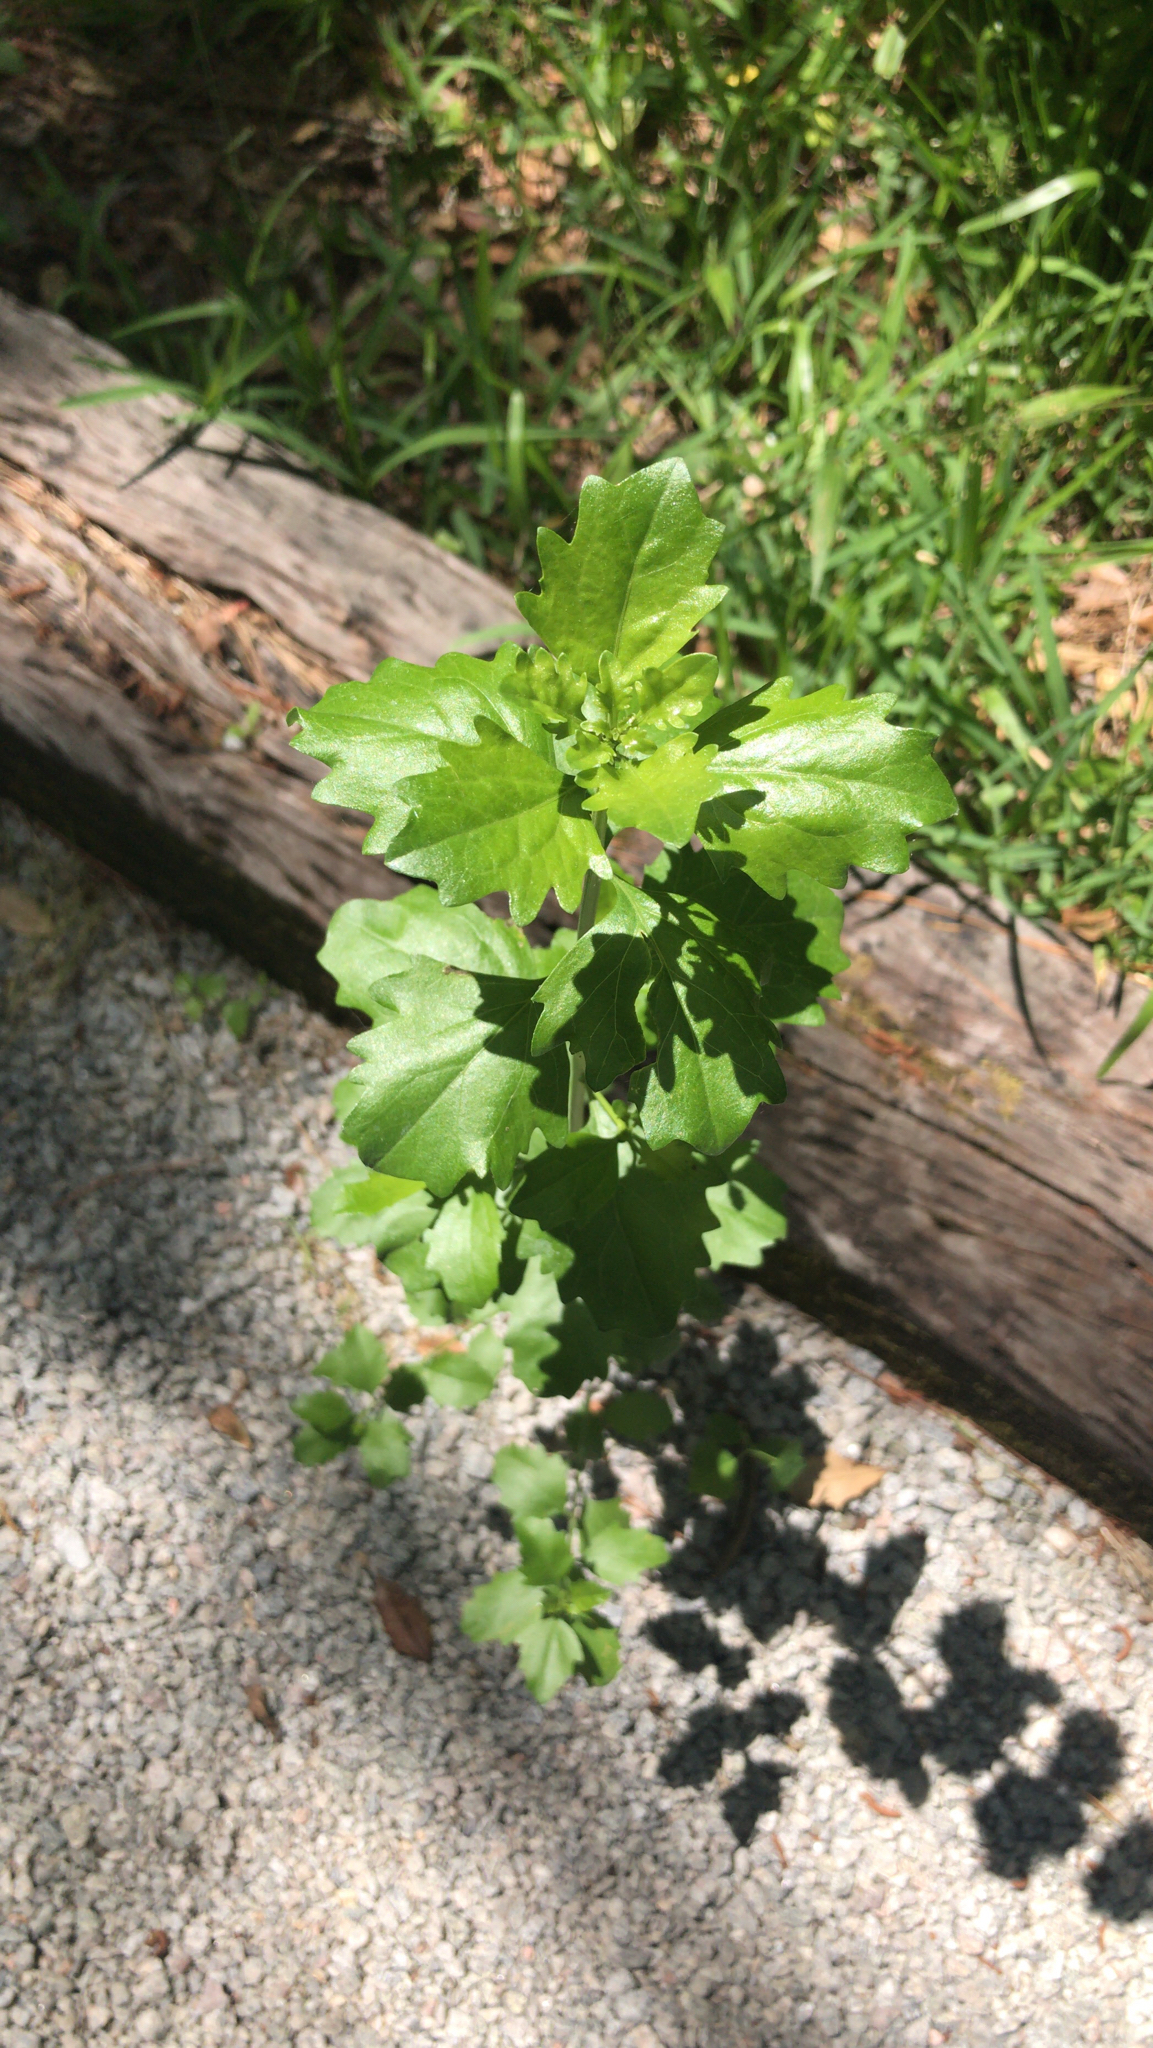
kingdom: Plantae
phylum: Tracheophyta
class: Magnoliopsida
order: Caryophyllales
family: Amaranthaceae
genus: Chenopodiastrum
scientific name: Chenopodiastrum murale
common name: Sowbane
